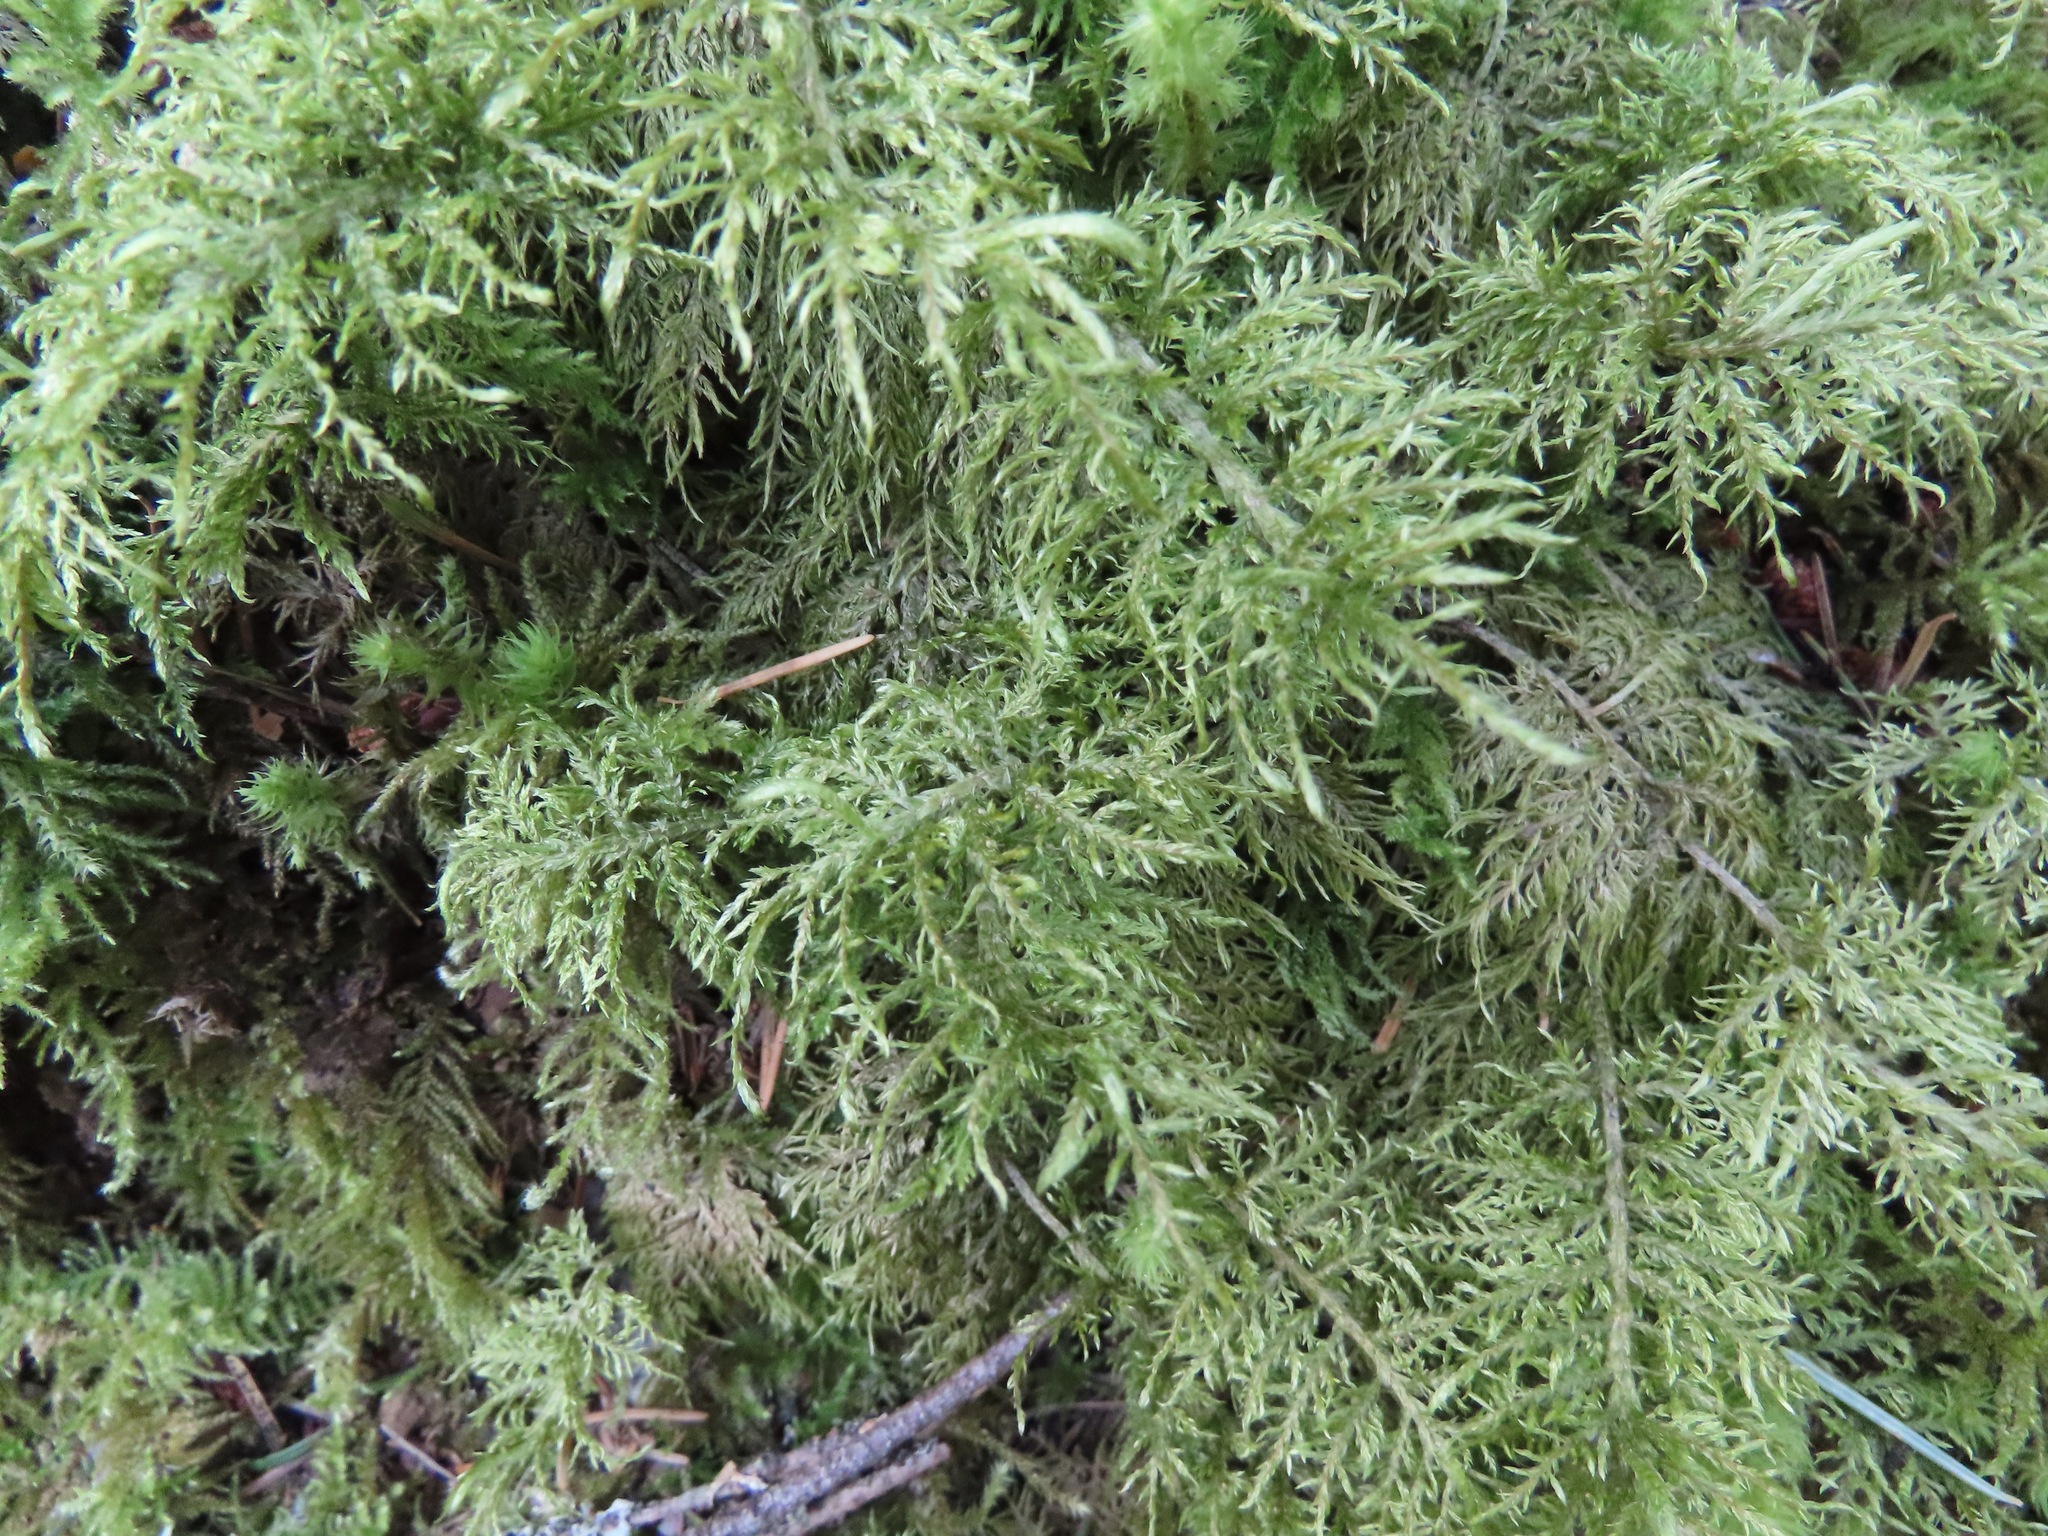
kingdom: Plantae
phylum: Bryophyta
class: Bryopsida
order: Hypnales
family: Hylocomiaceae
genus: Hylocomium
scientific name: Hylocomium splendens
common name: Stairstep moss
